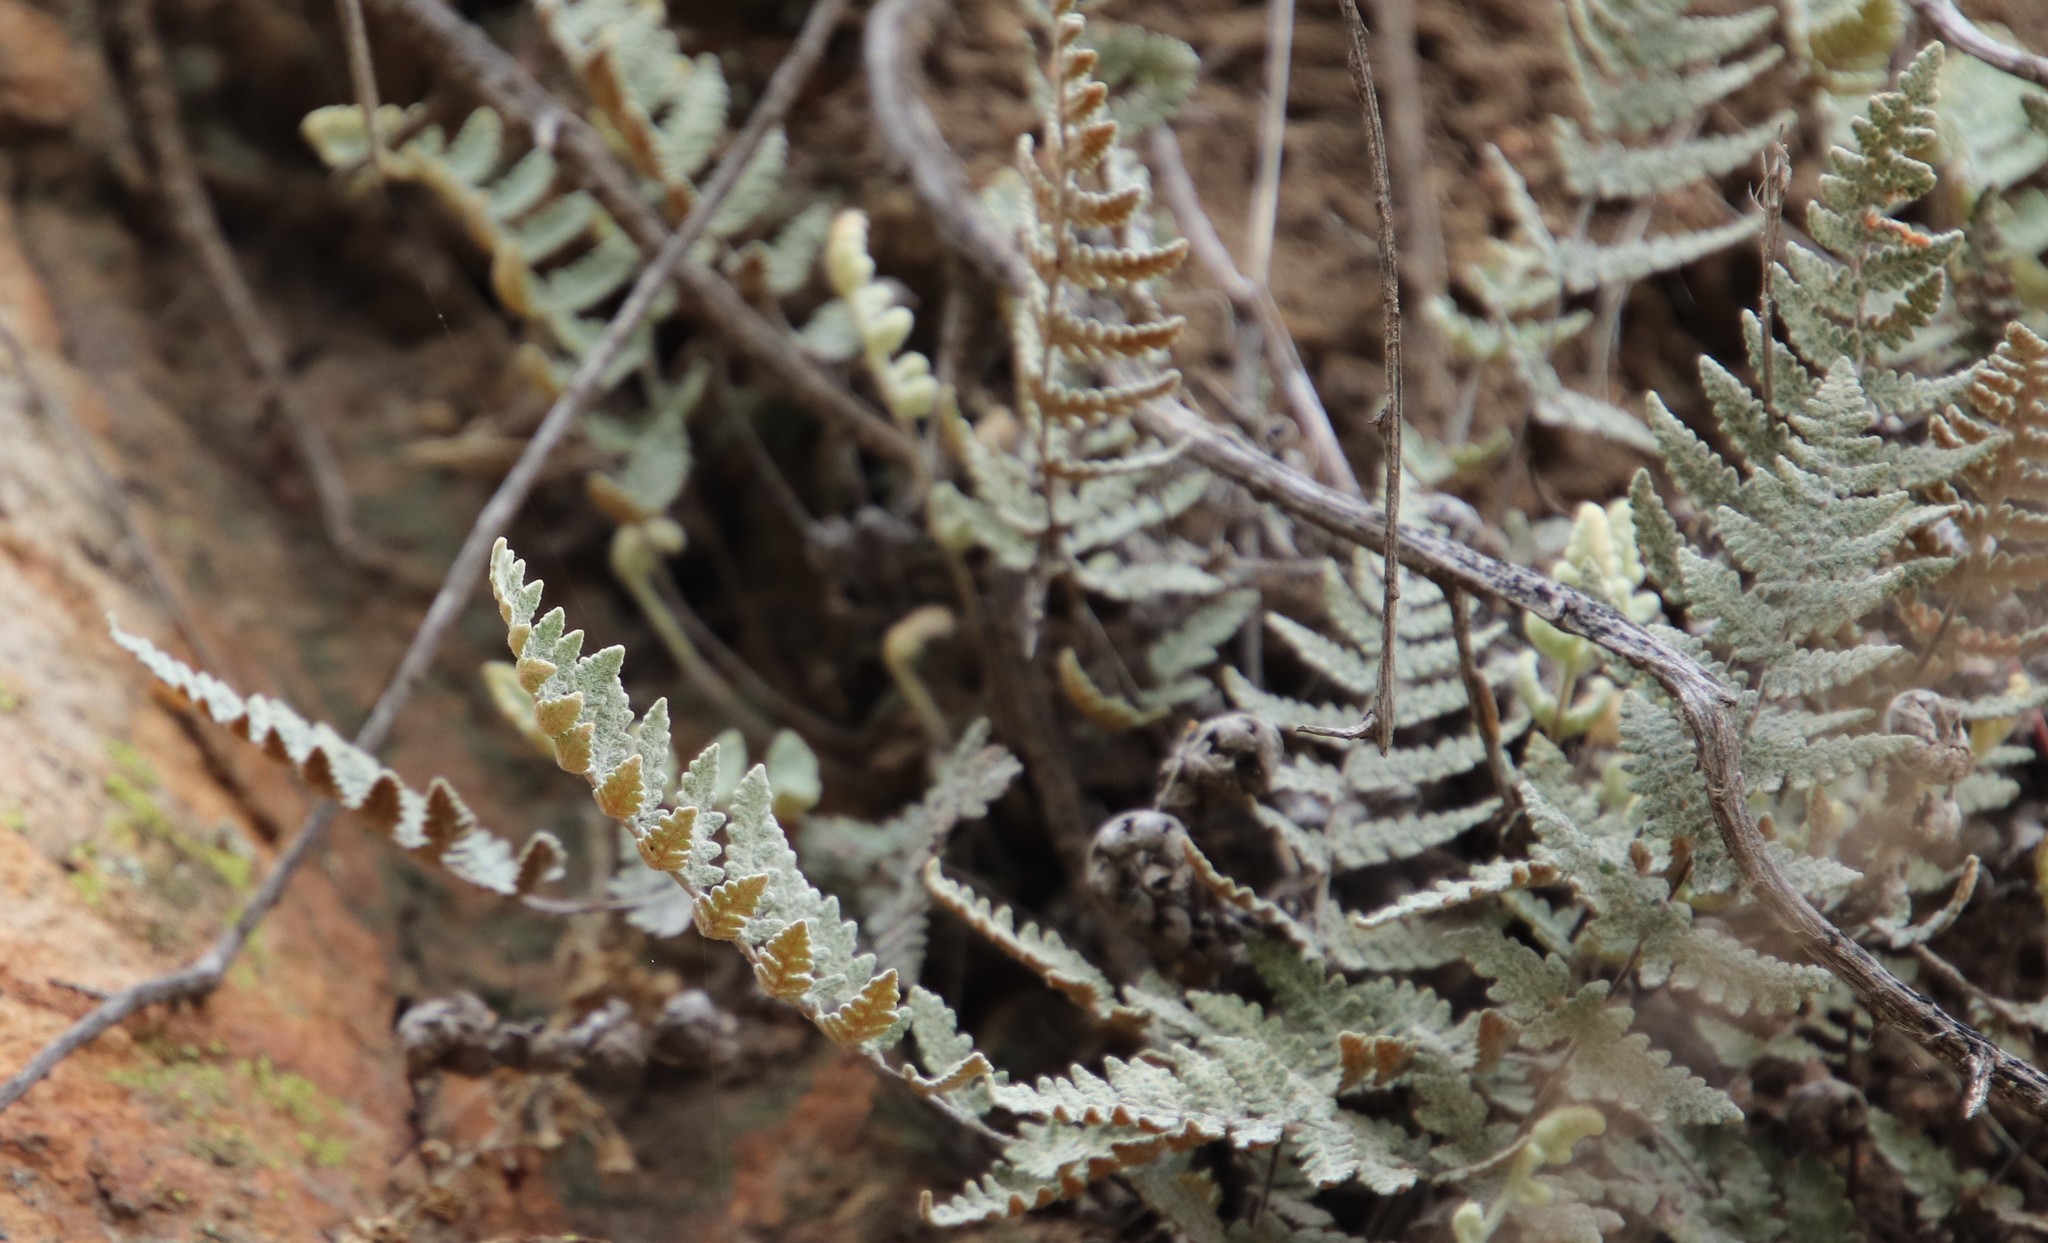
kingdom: Plantae
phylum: Tracheophyta
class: Polypodiopsida
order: Polypodiales
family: Pteridaceae
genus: Myriopteris
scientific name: Myriopteris newberryi
